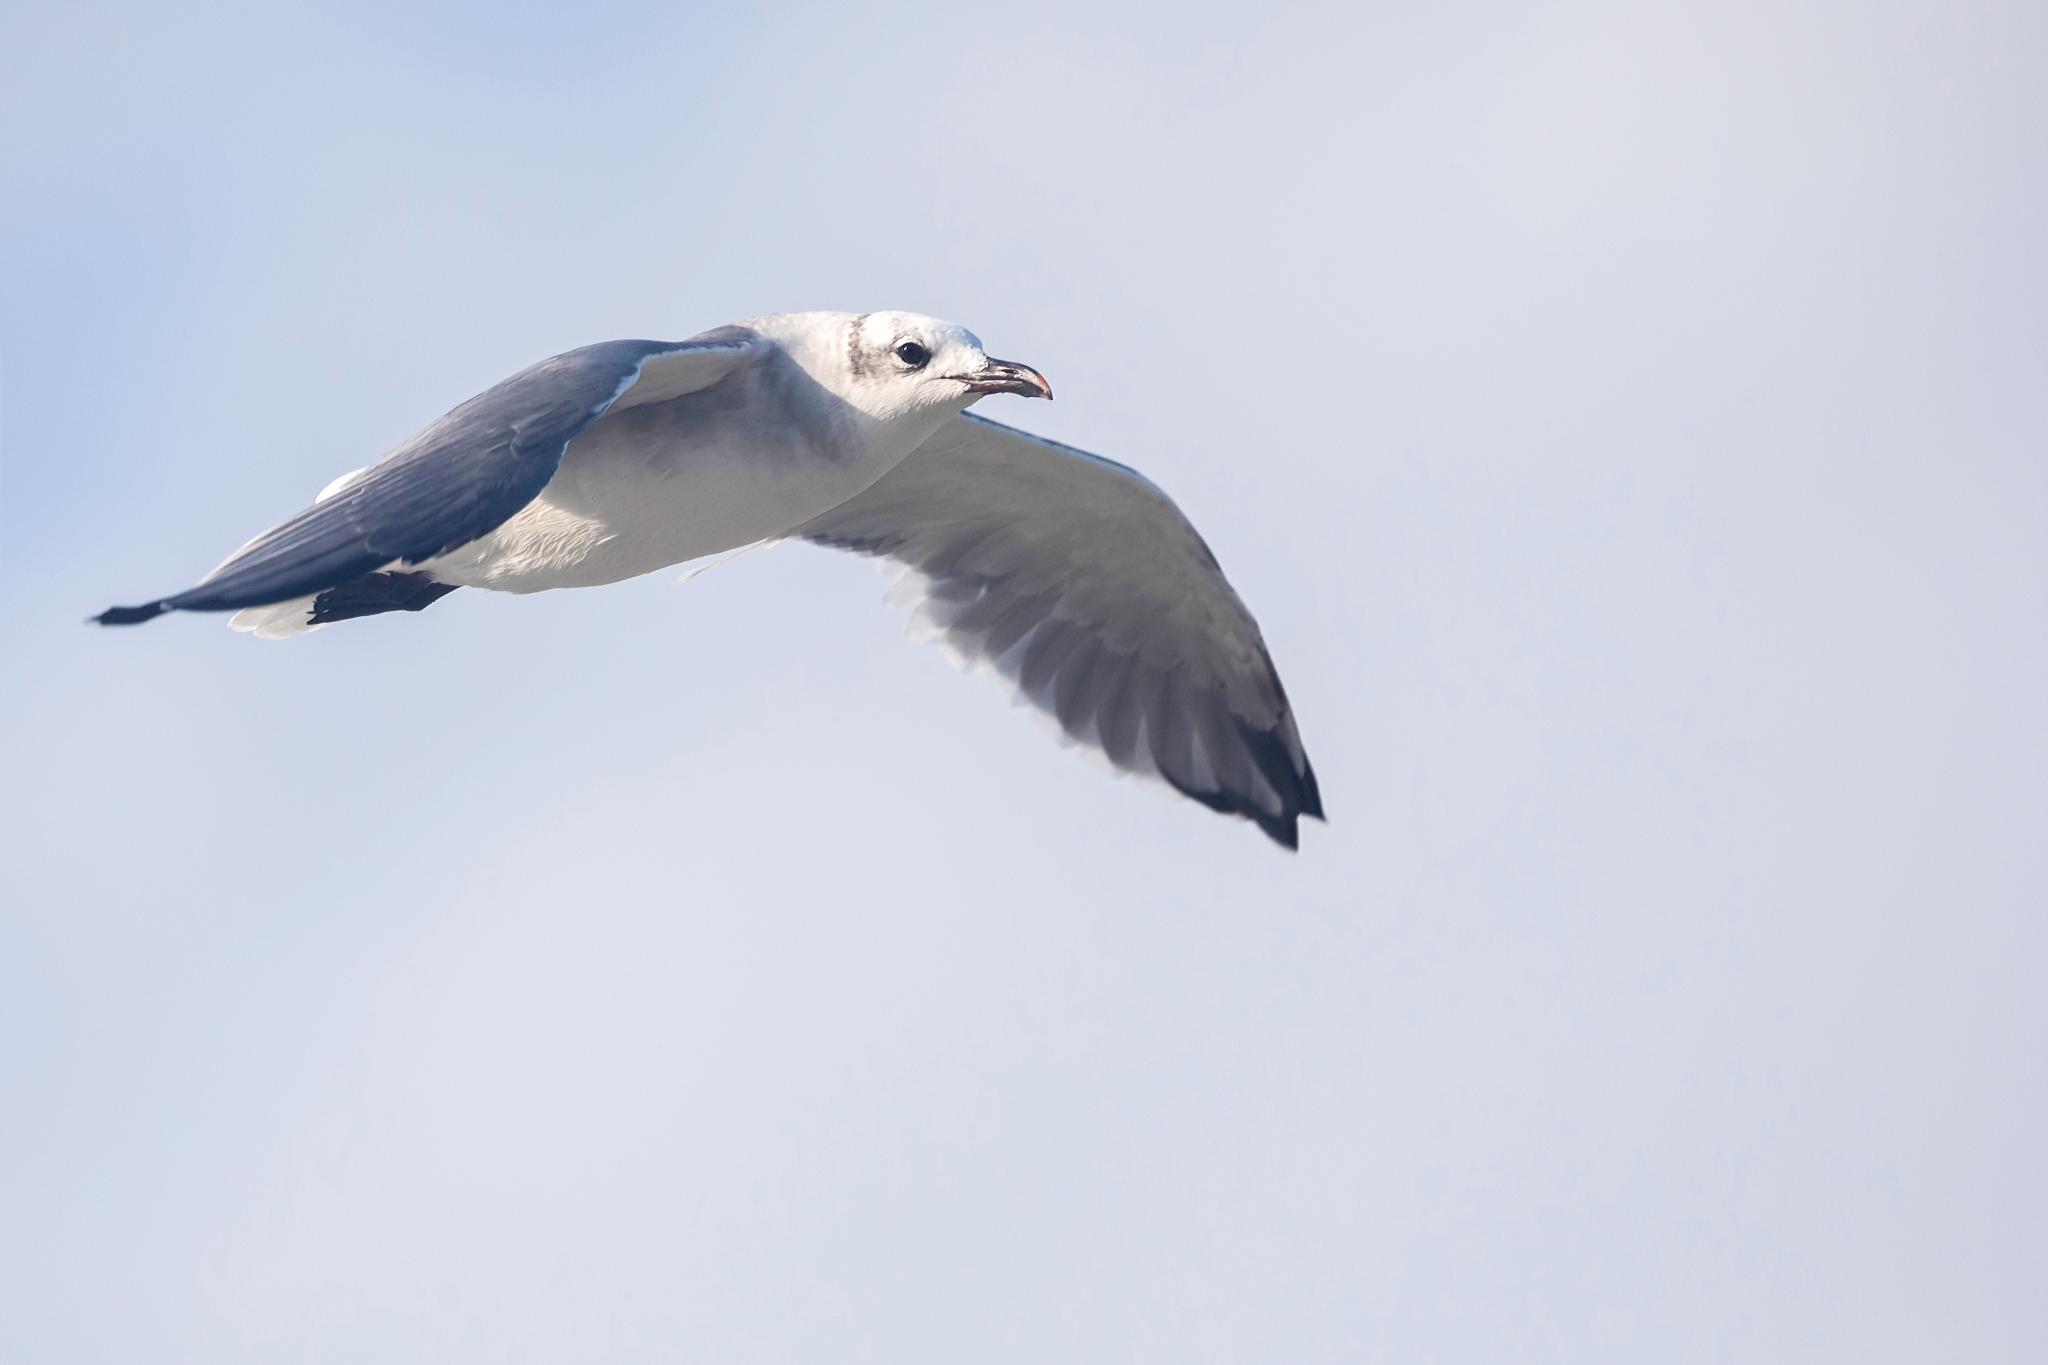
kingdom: Animalia
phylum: Chordata
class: Aves
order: Charadriiformes
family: Laridae
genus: Leucophaeus
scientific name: Leucophaeus atricilla
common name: Laughing gull
